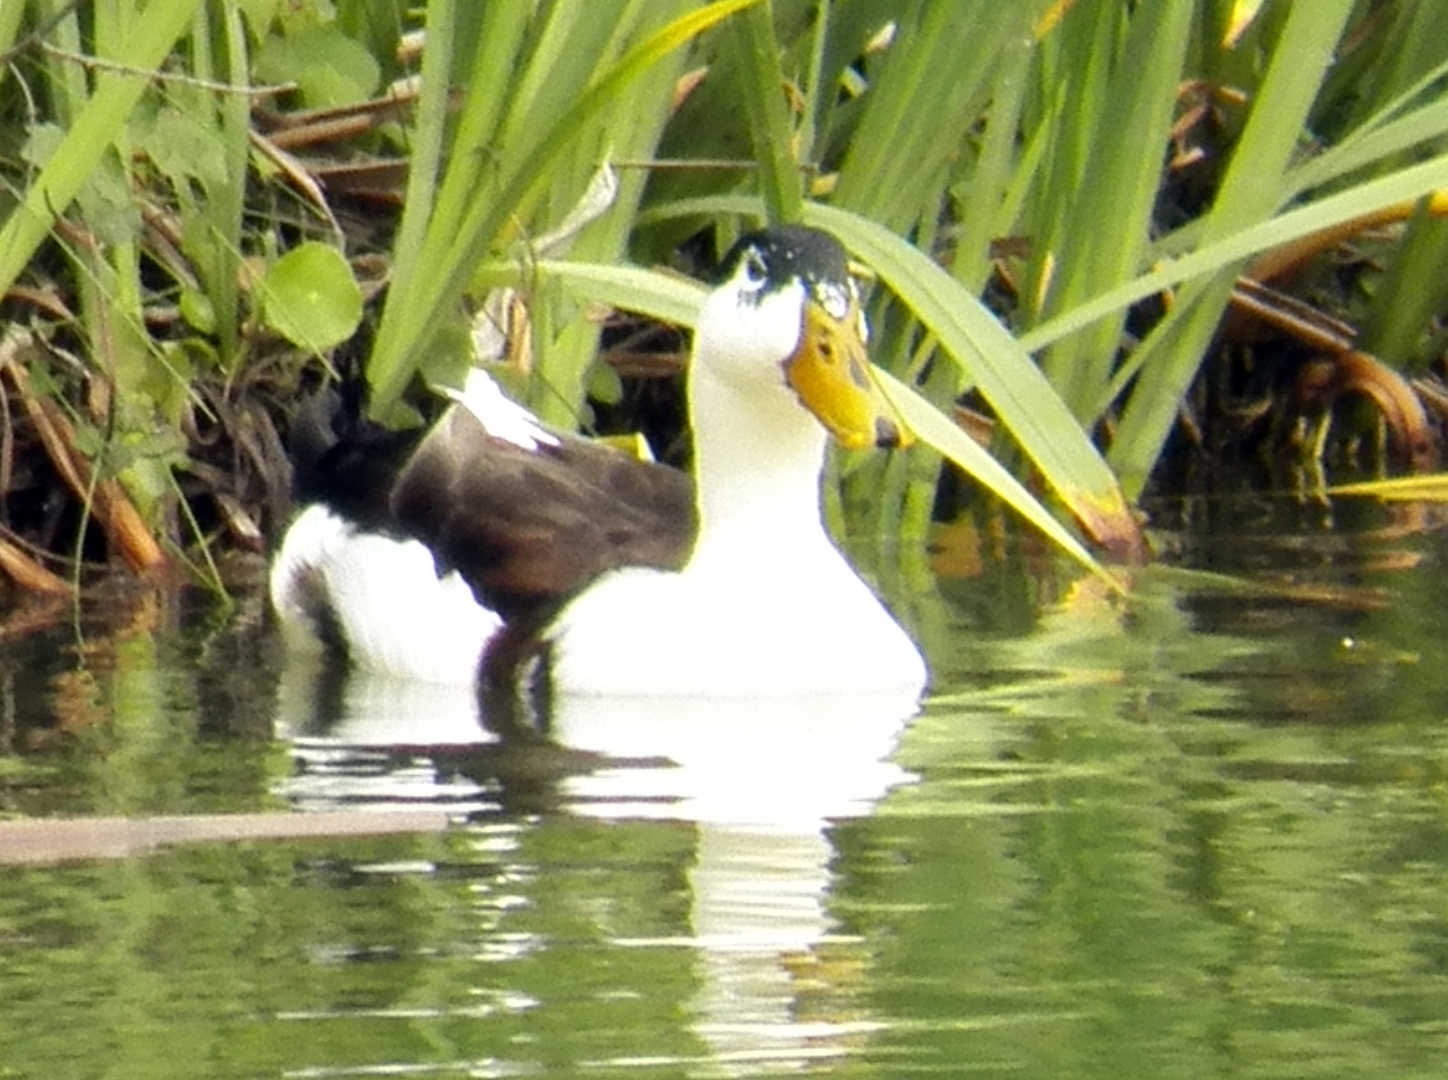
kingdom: Animalia
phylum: Chordata
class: Aves
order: Anseriformes
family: Anatidae
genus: Anas
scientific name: Anas platyrhynchos
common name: Mallard
